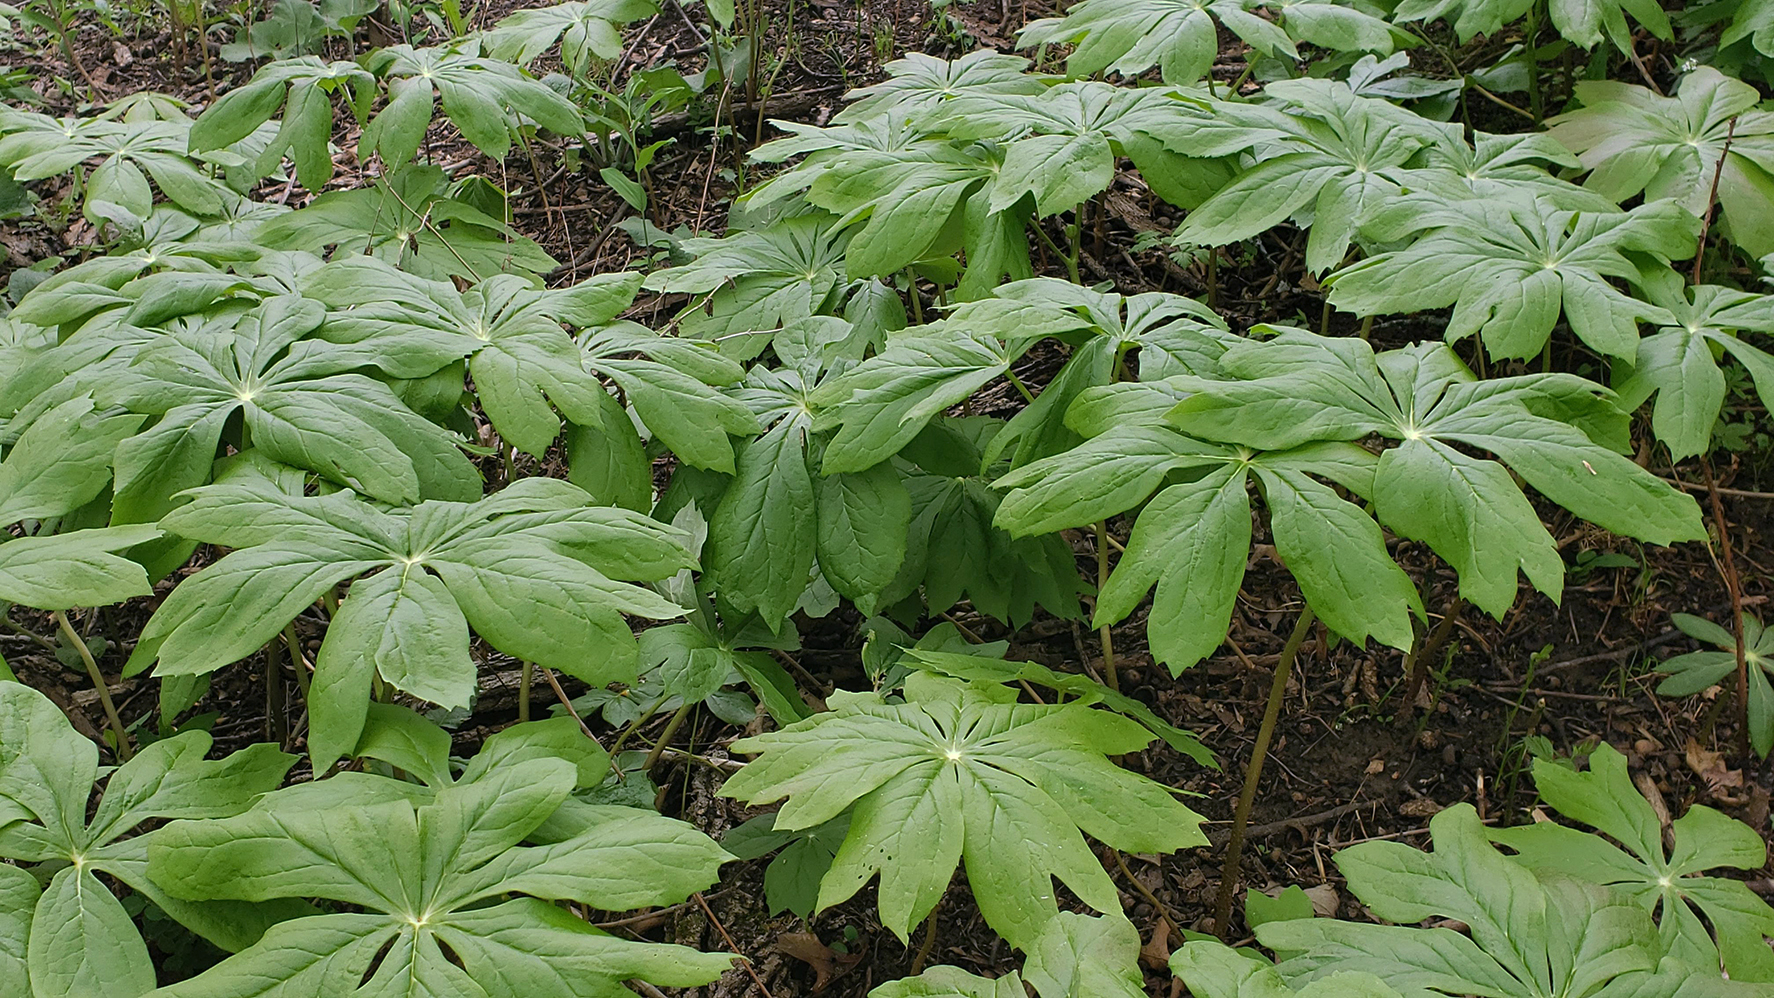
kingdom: Plantae
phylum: Tracheophyta
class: Magnoliopsida
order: Ranunculales
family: Berberidaceae
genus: Podophyllum
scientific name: Podophyllum peltatum
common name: Wild mandrake
